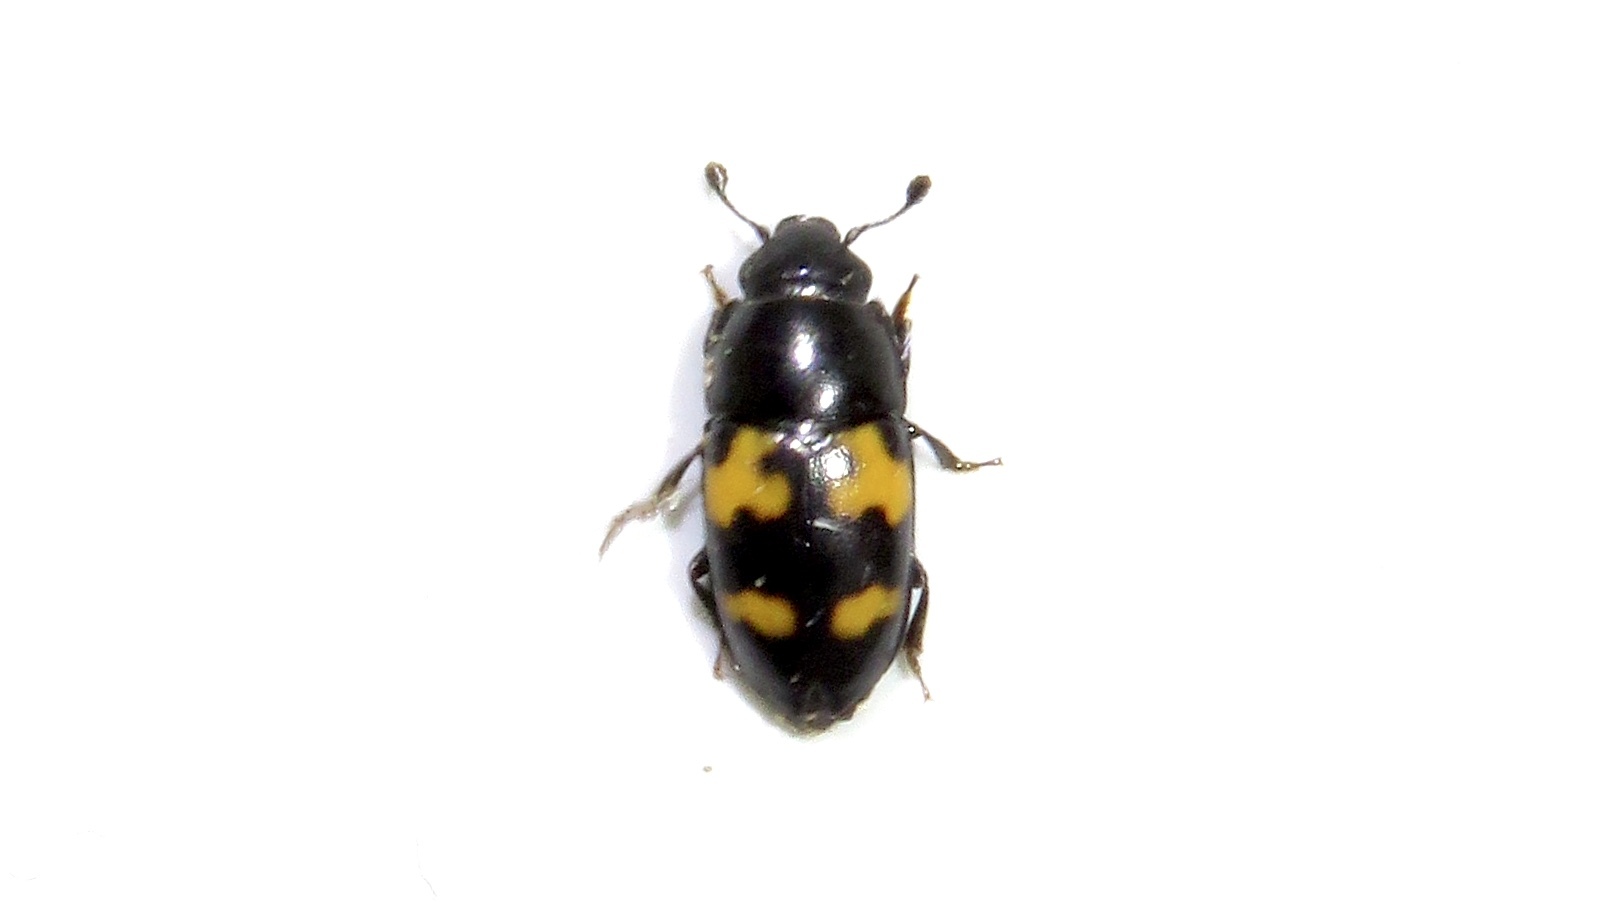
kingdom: Animalia
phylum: Arthropoda
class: Insecta
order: Coleoptera
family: Nitidulidae
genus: Glischrochilus
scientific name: Glischrochilus fasciatus
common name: Picnic beetle
